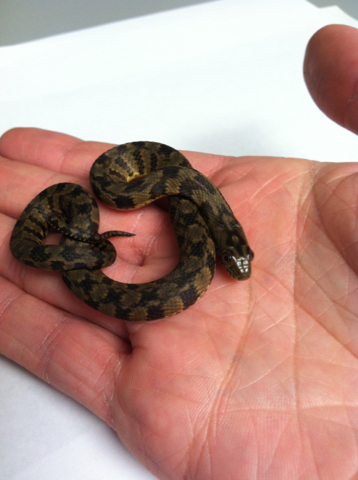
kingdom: Animalia
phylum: Chordata
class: Squamata
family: Colubridae
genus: Nerodia
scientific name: Nerodia rhombifer
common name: Diamondback water snake
